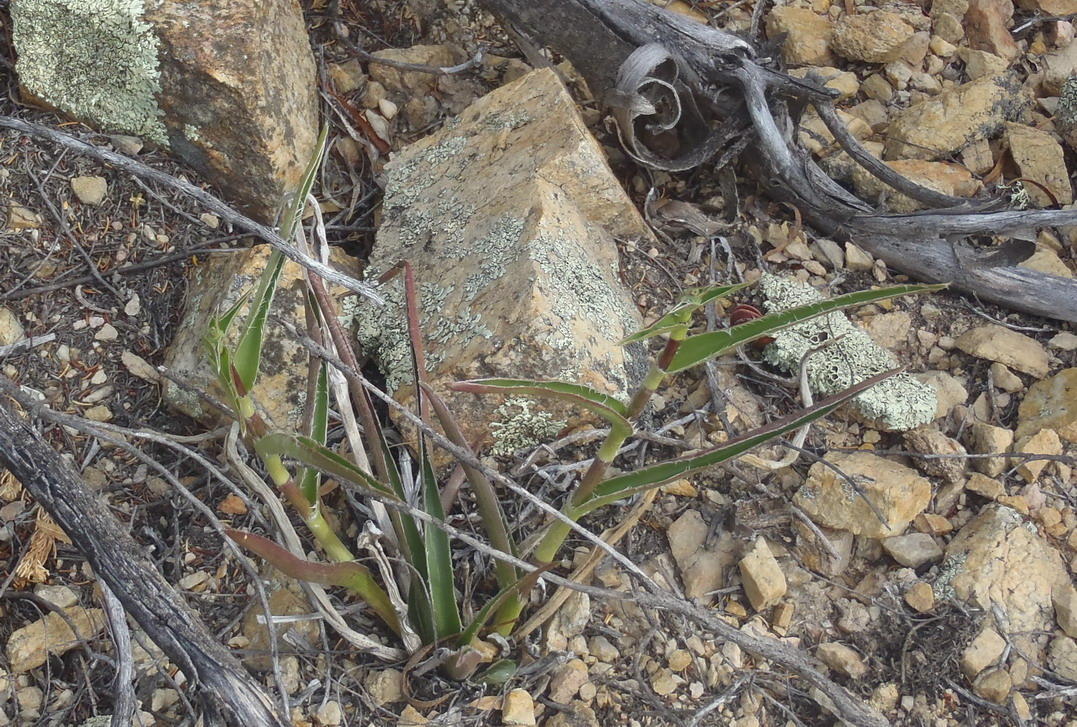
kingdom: Plantae
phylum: Tracheophyta
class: Liliopsida
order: Commelinales
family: Commelinaceae
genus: Cyanotis
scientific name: Cyanotis speciosa
